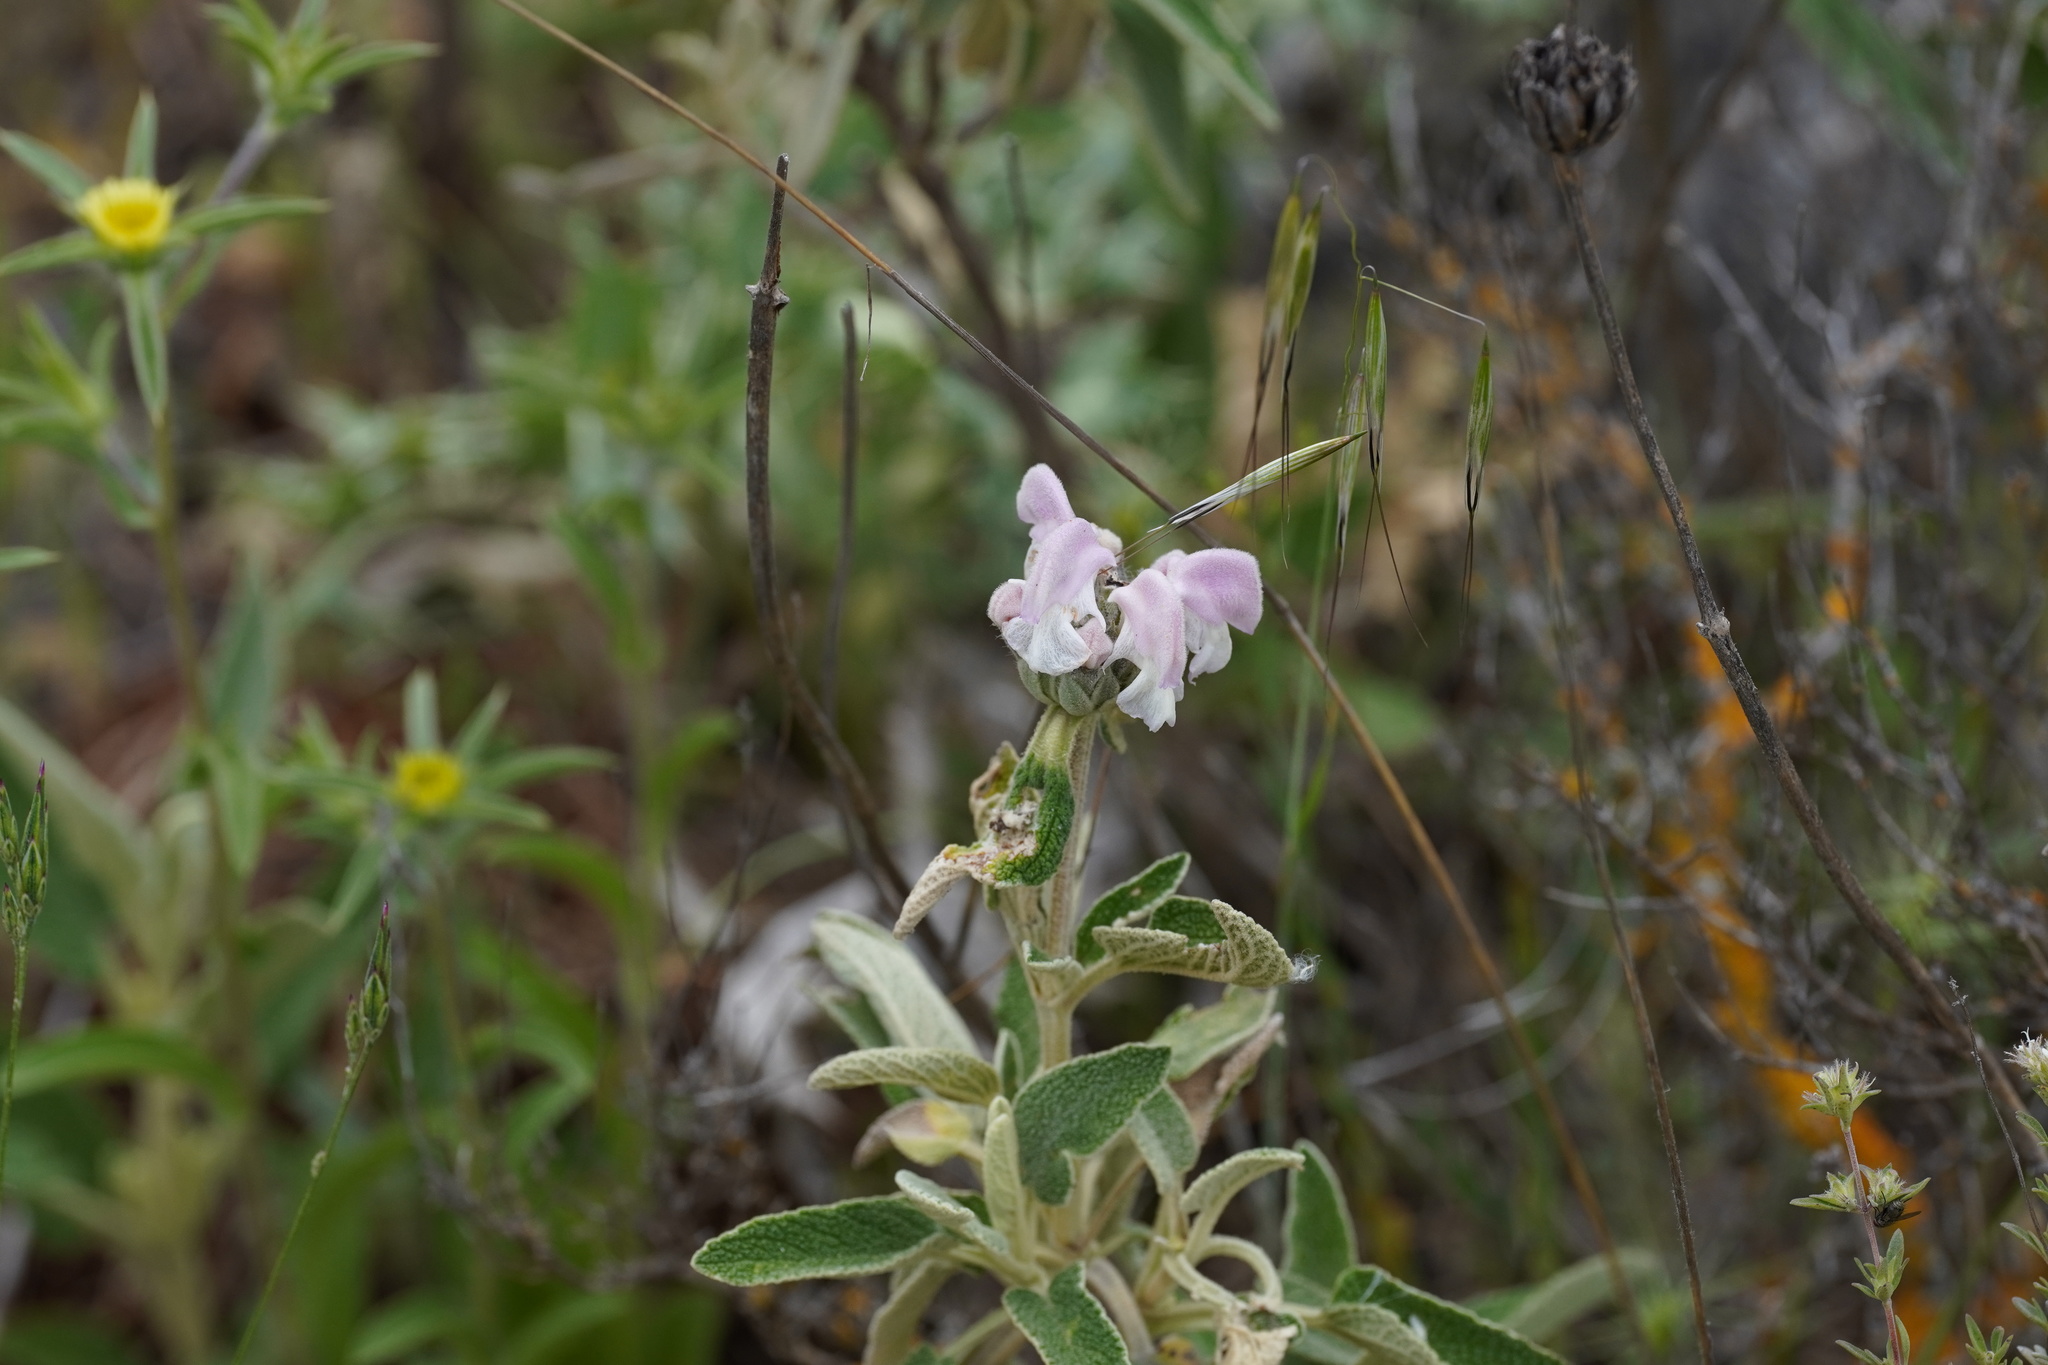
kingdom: Plantae
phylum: Tracheophyta
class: Magnoliopsida
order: Lamiales
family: Lamiaceae
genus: Phlomis
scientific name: Phlomis purpurea
